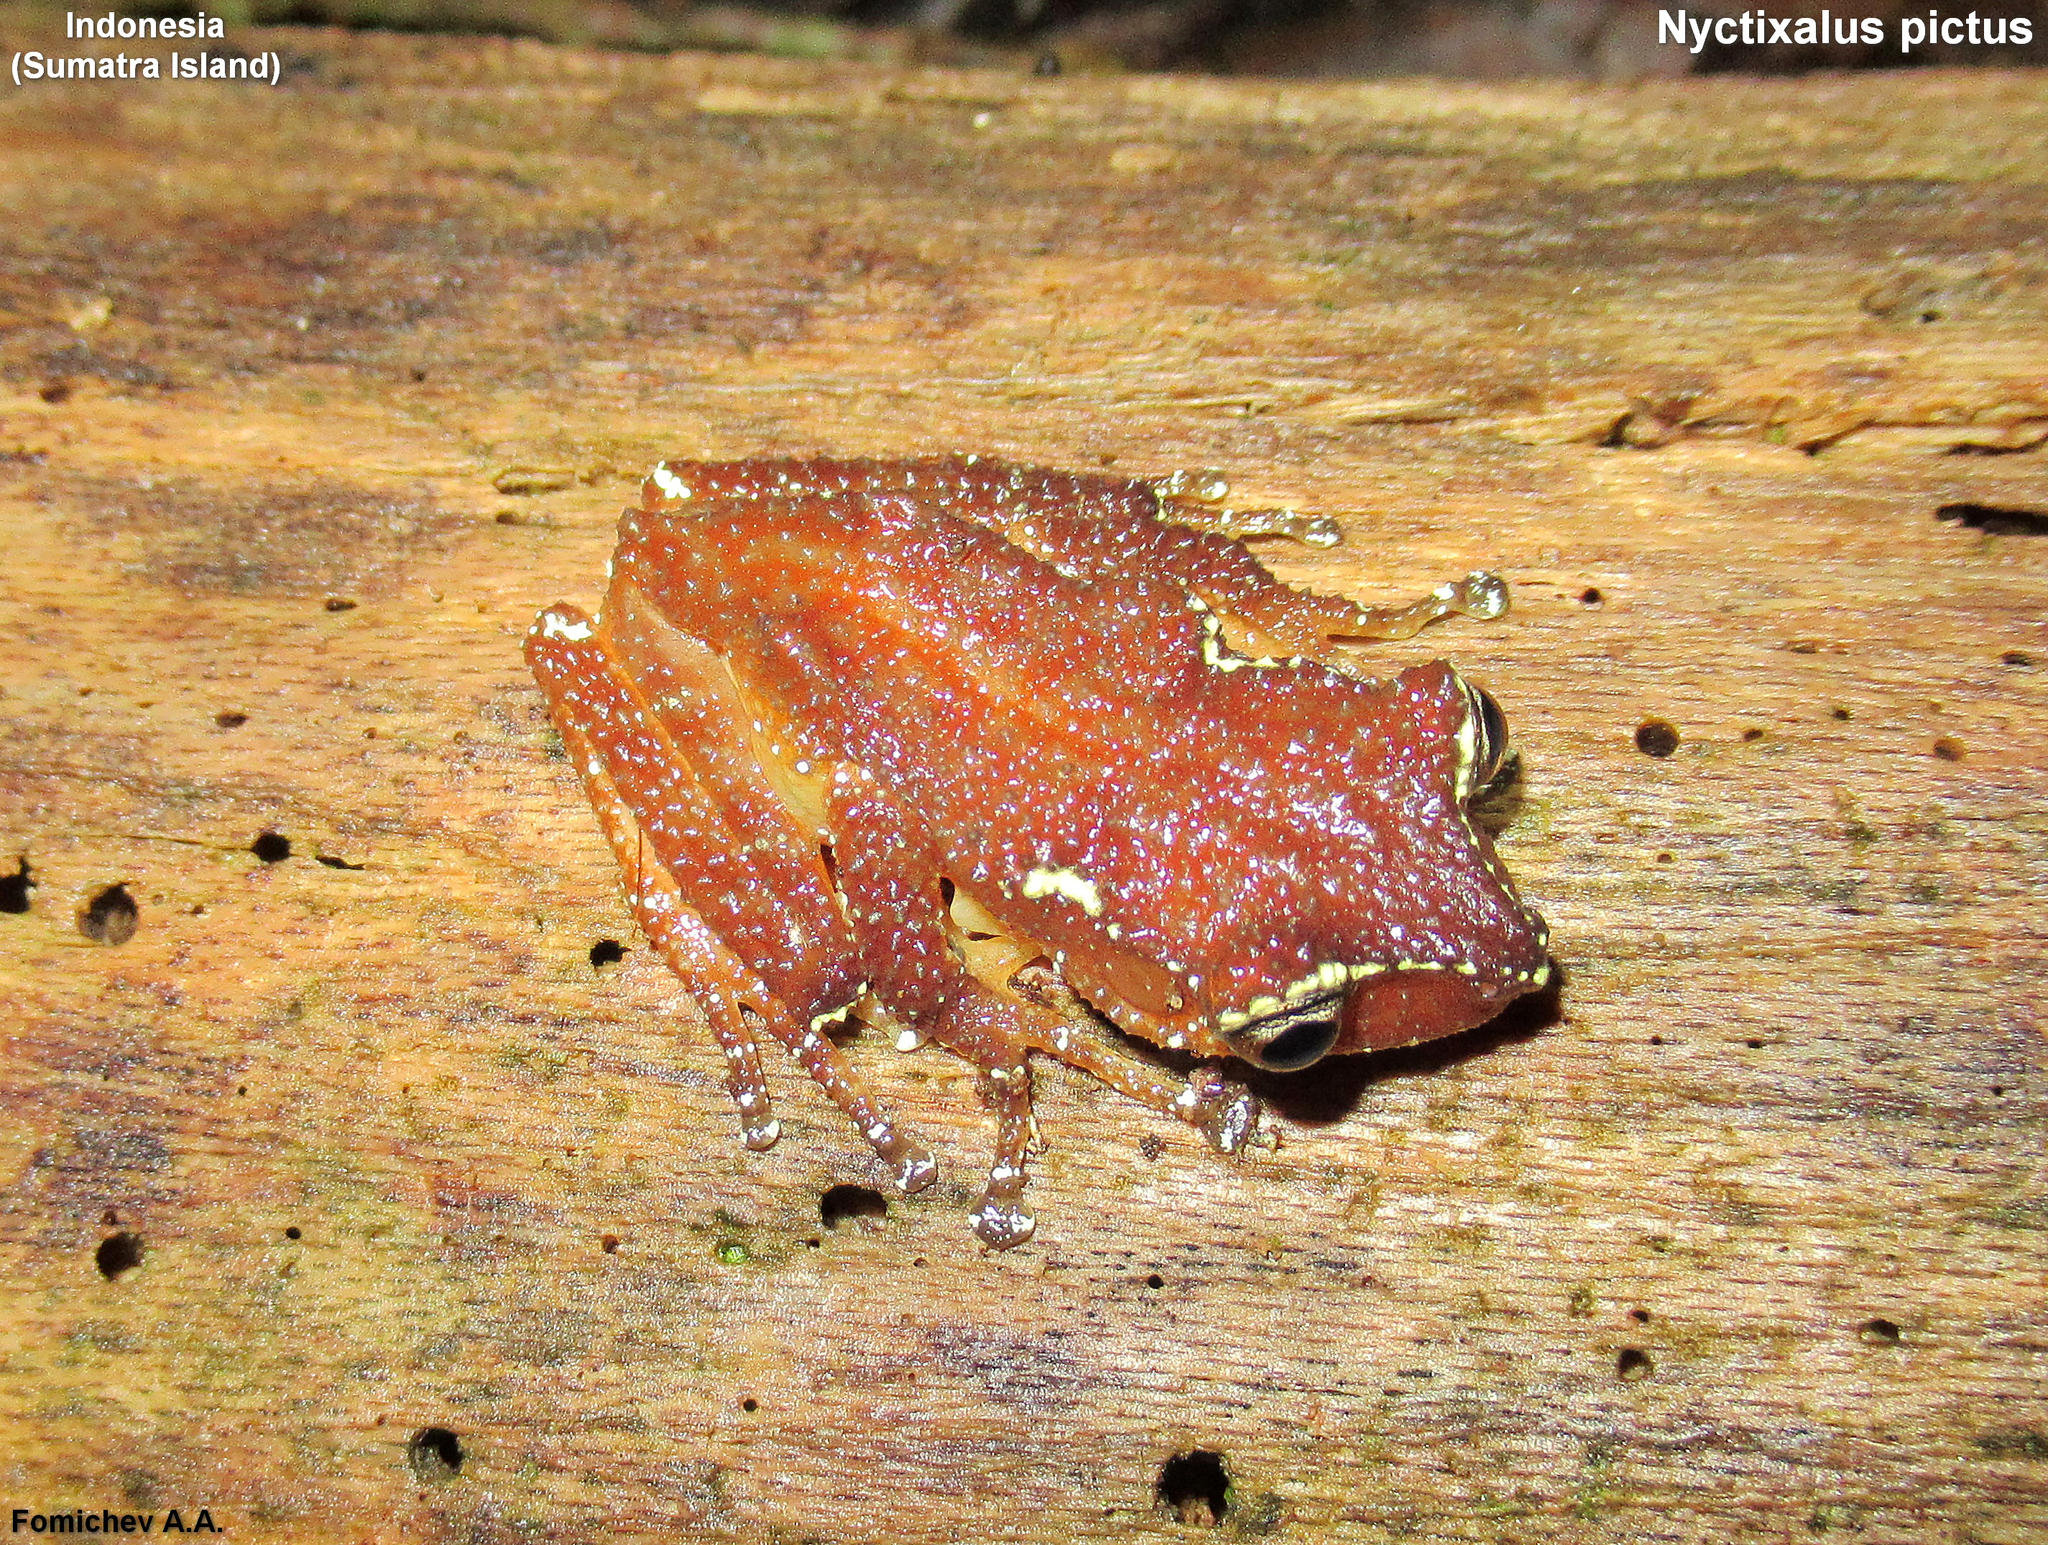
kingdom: Animalia
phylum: Chordata
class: Amphibia
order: Anura
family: Rhacophoridae
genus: Nyctixalus
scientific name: Nyctixalus pictus
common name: White-spotted tree frog
